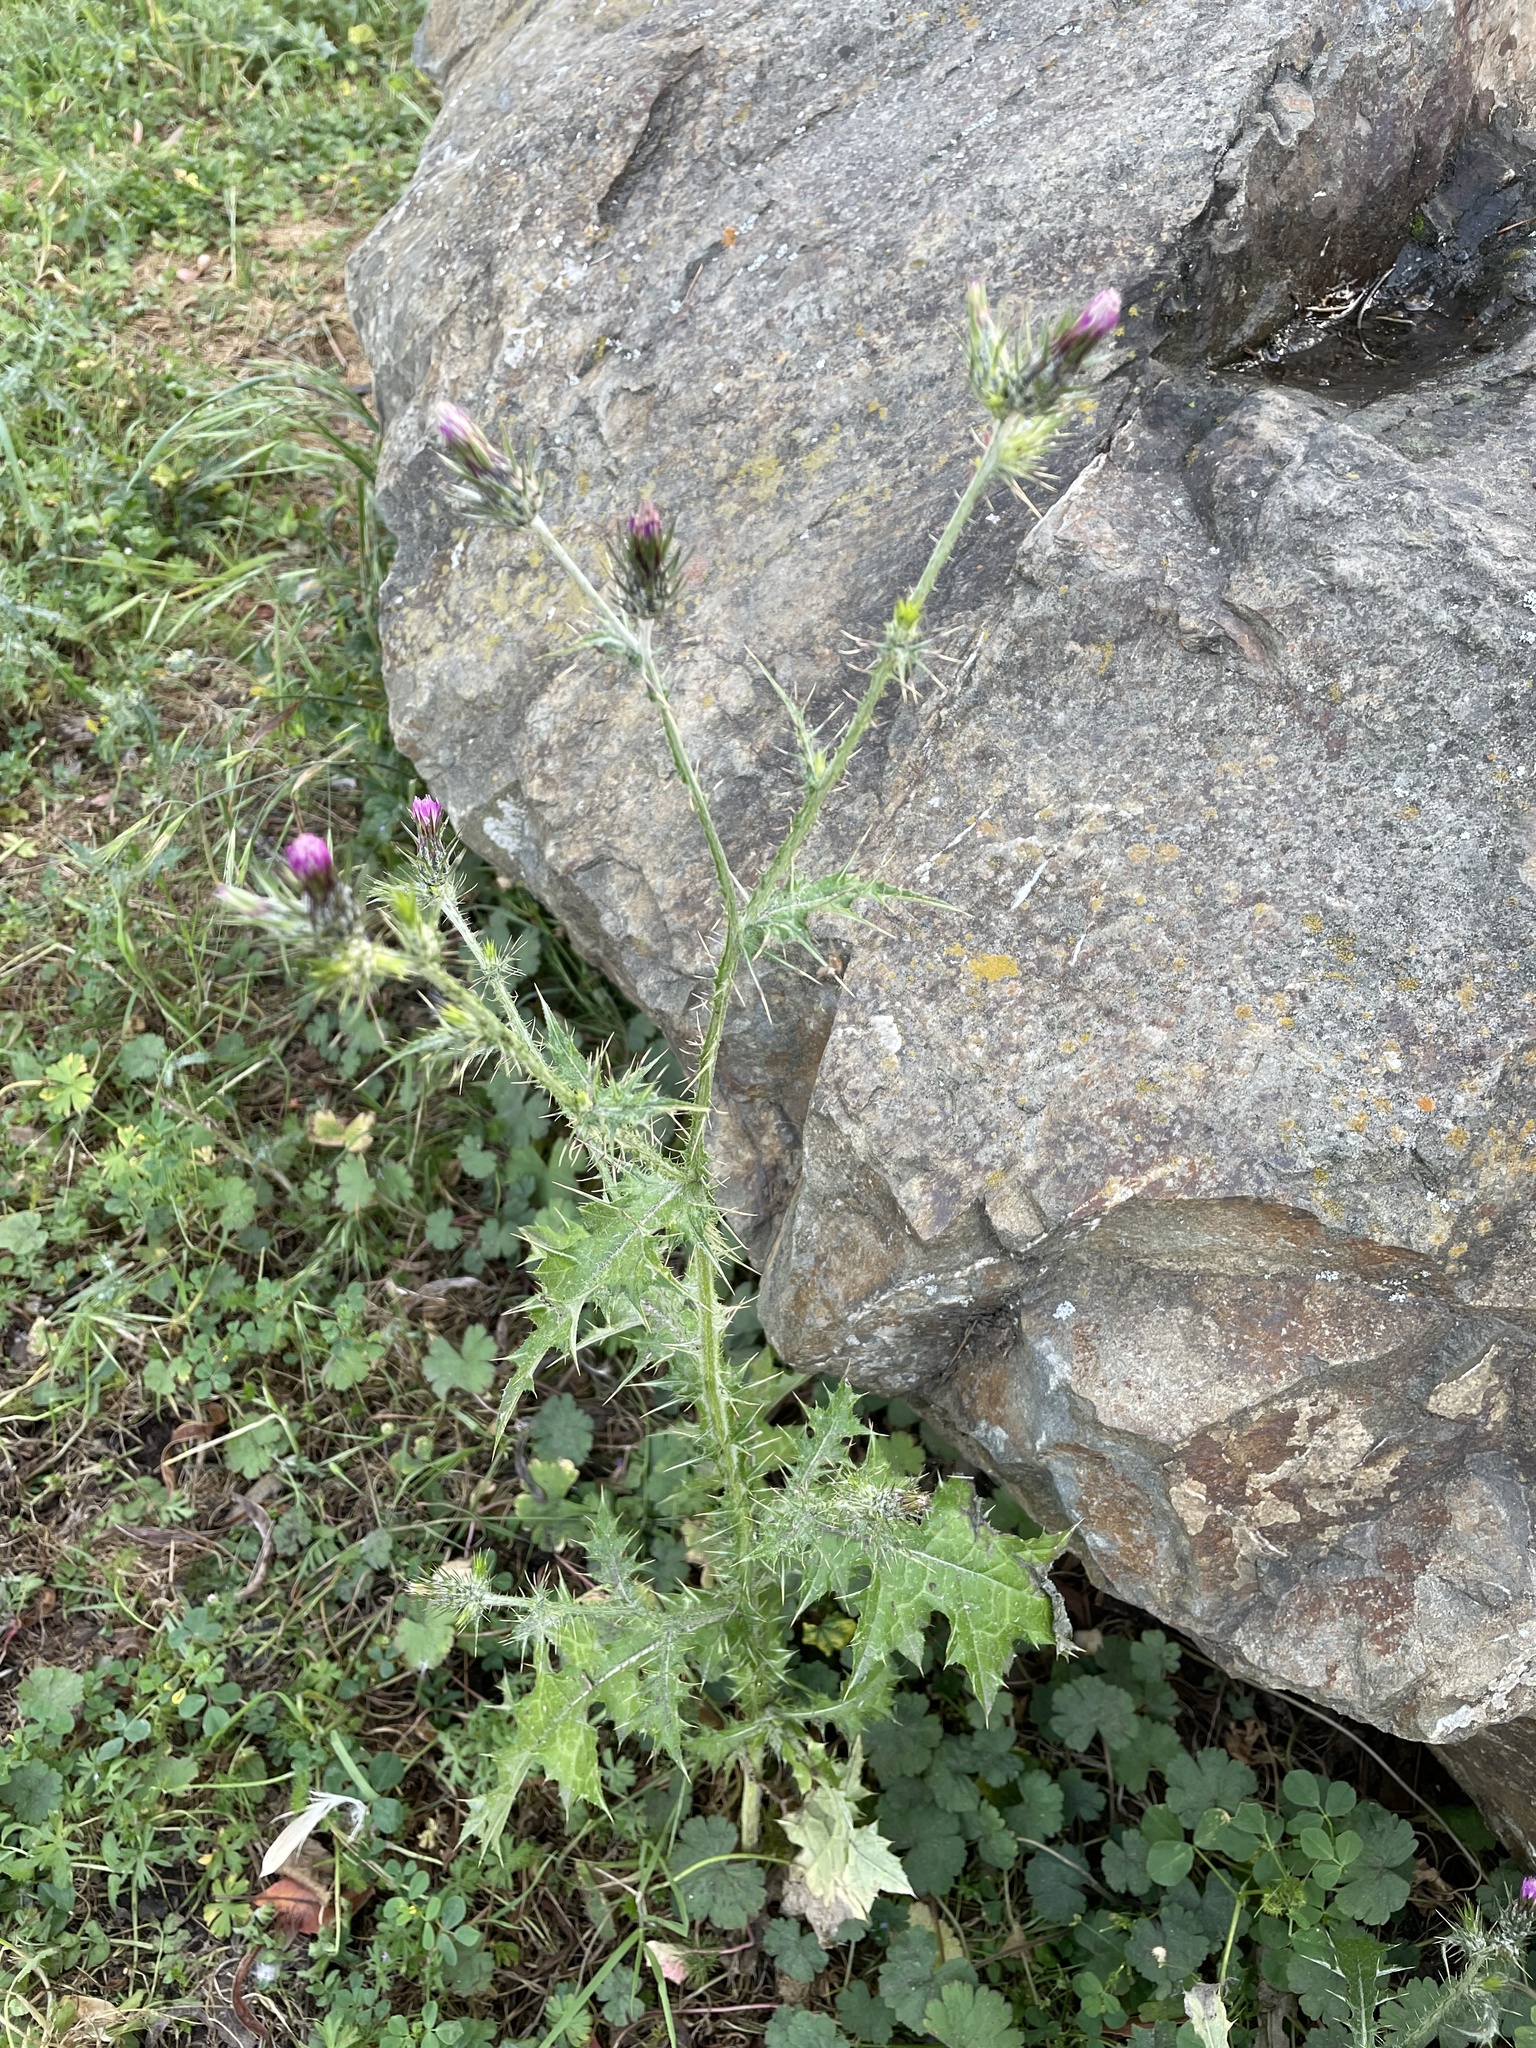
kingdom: Plantae
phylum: Tracheophyta
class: Magnoliopsida
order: Asterales
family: Asteraceae
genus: Carduus
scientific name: Carduus pycnocephalus
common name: Plymouth thistle
